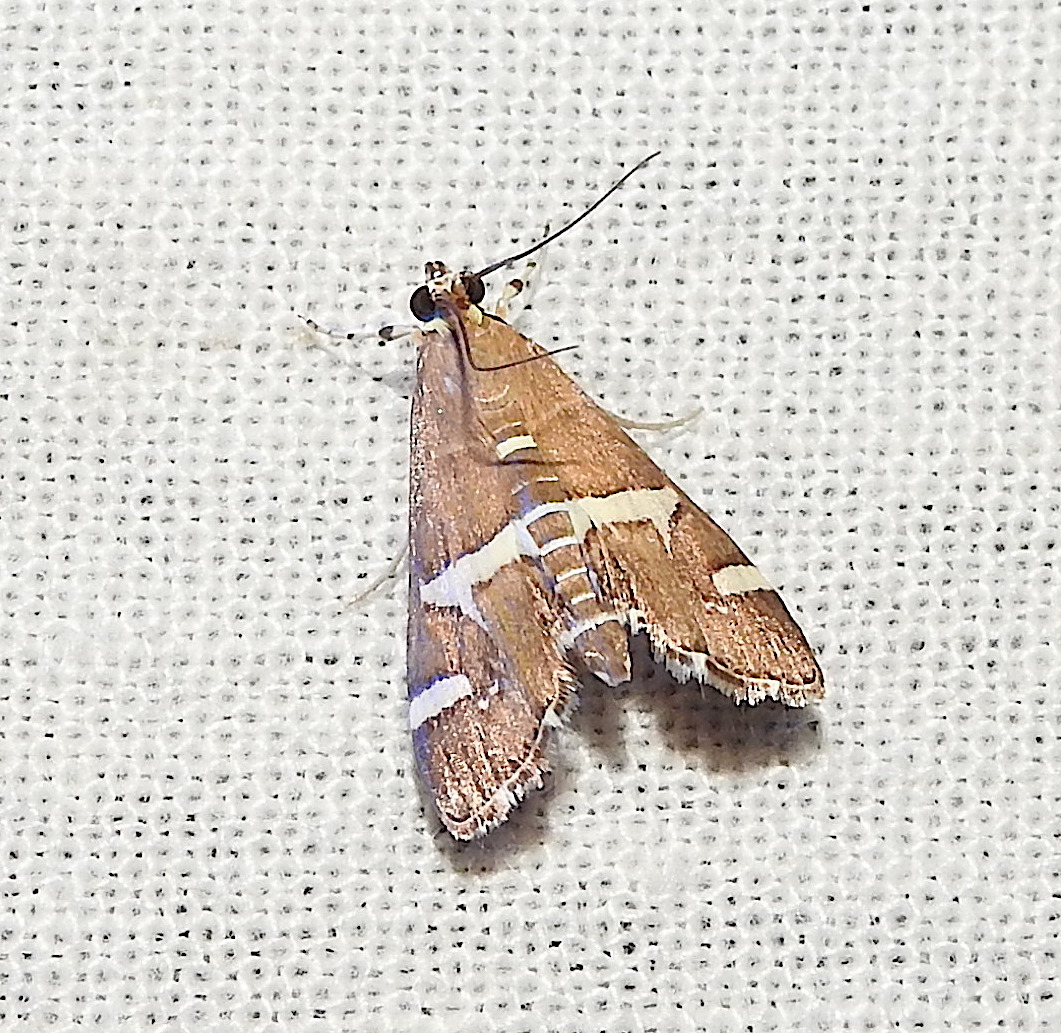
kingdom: Animalia
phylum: Arthropoda
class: Insecta
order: Lepidoptera
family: Crambidae
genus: Spoladea
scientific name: Spoladea recurvalis
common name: Beet webworm moth
